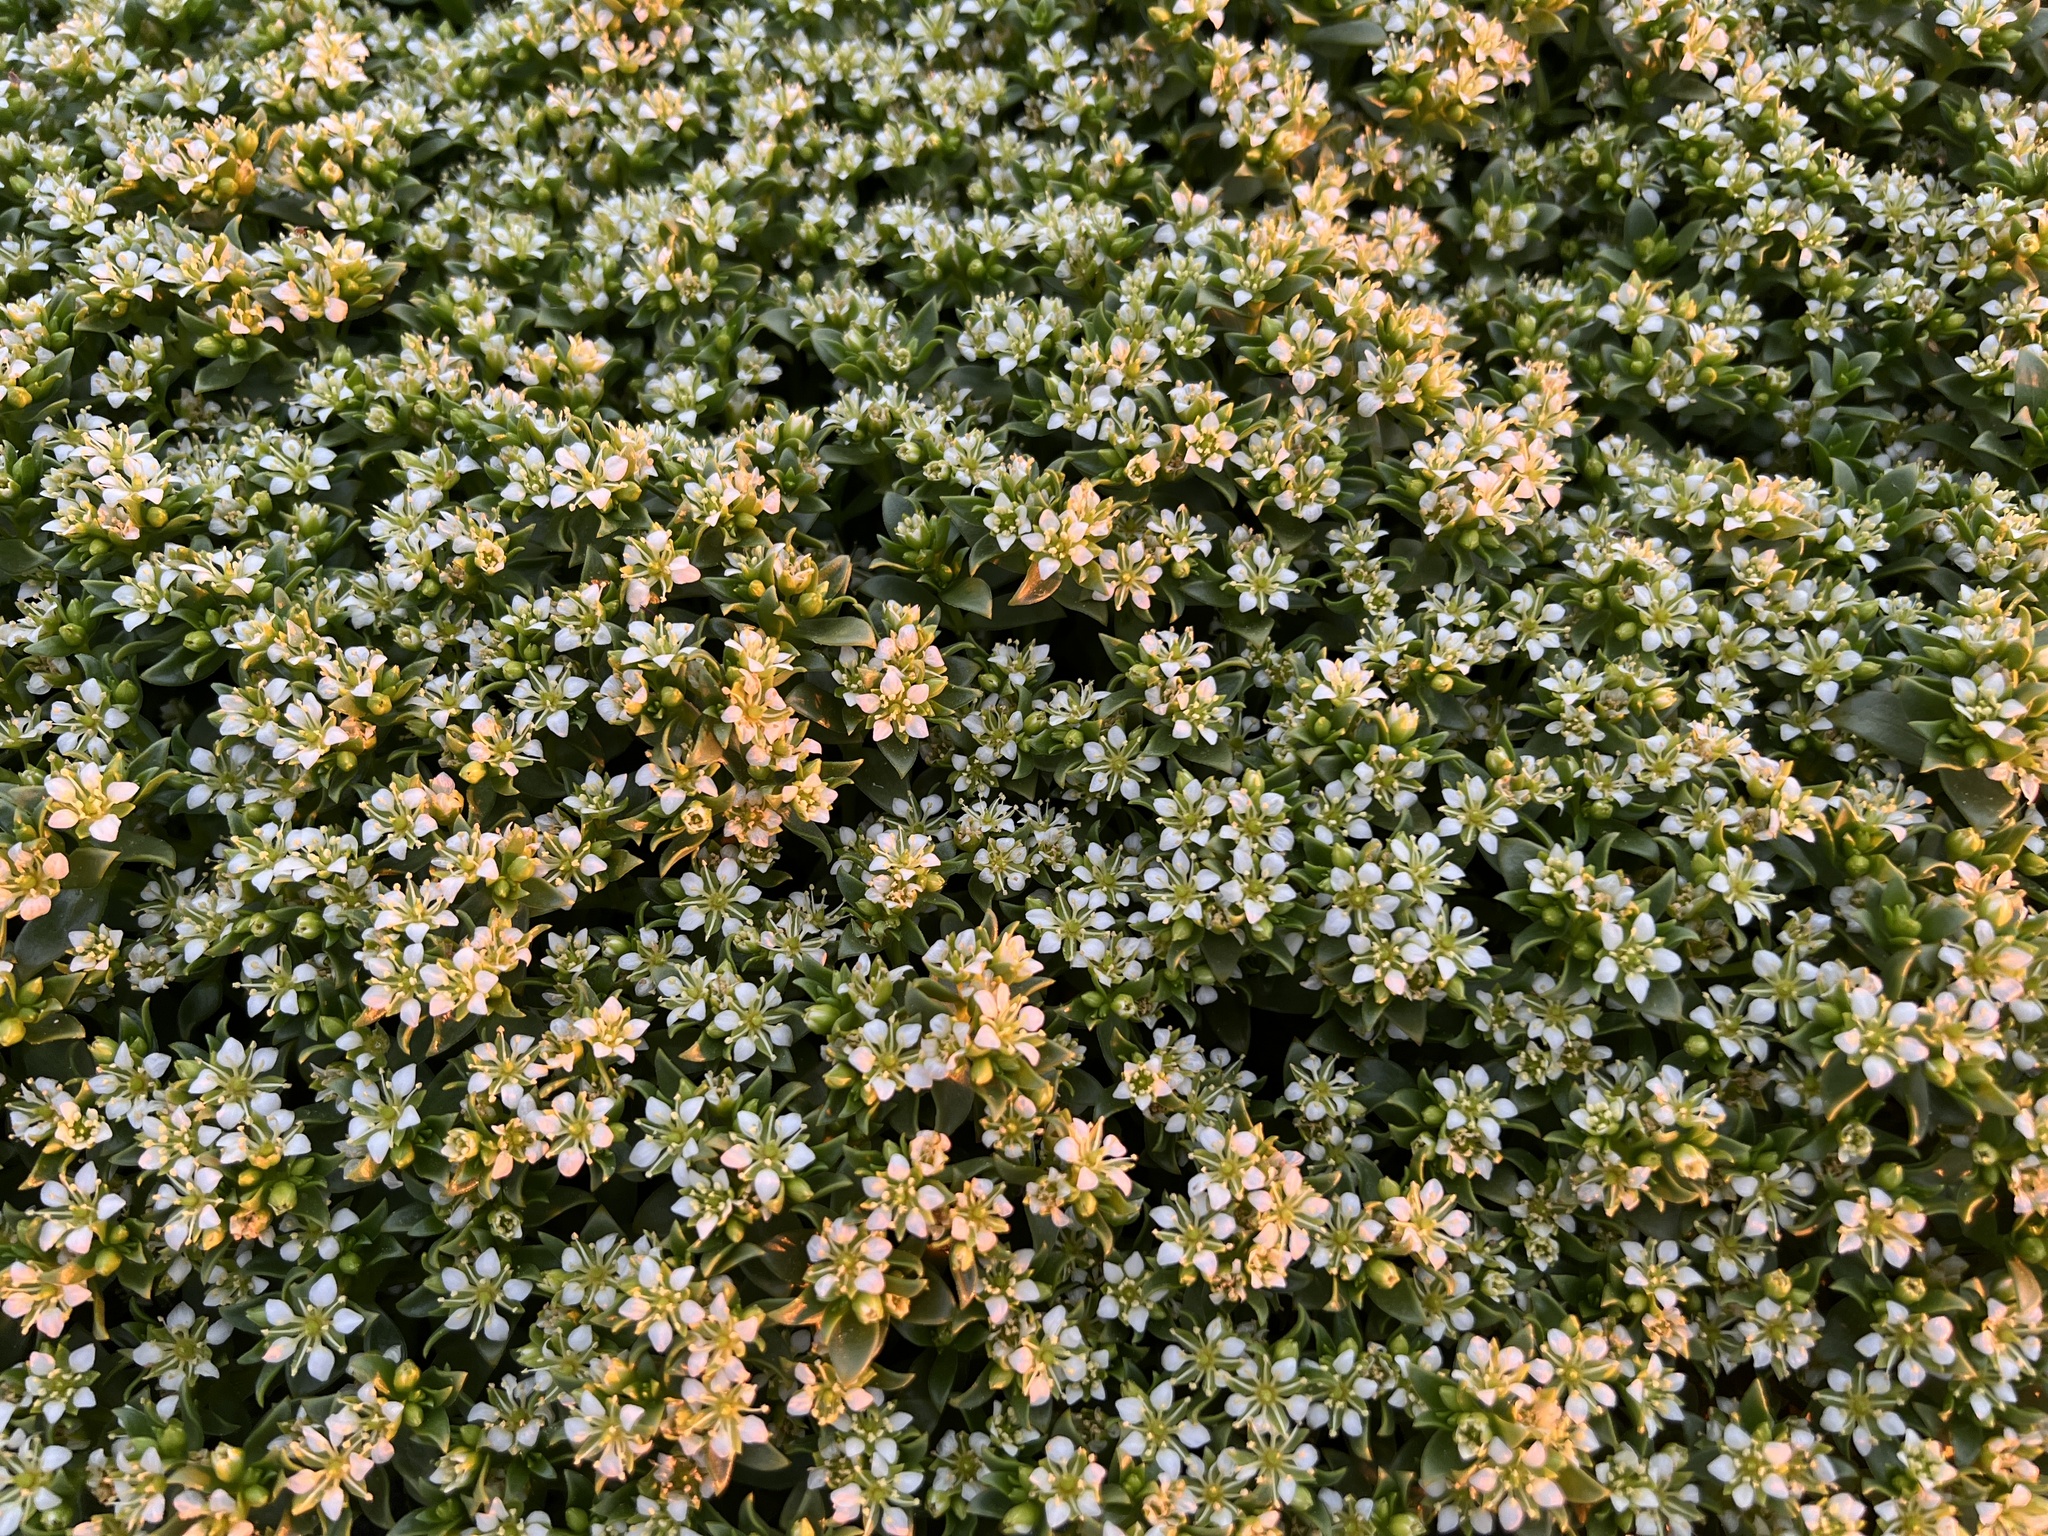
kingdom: Plantae
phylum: Tracheophyta
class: Magnoliopsida
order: Caryophyllales
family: Caryophyllaceae
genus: Honckenya
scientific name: Honckenya peploides
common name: Sea sandwort
